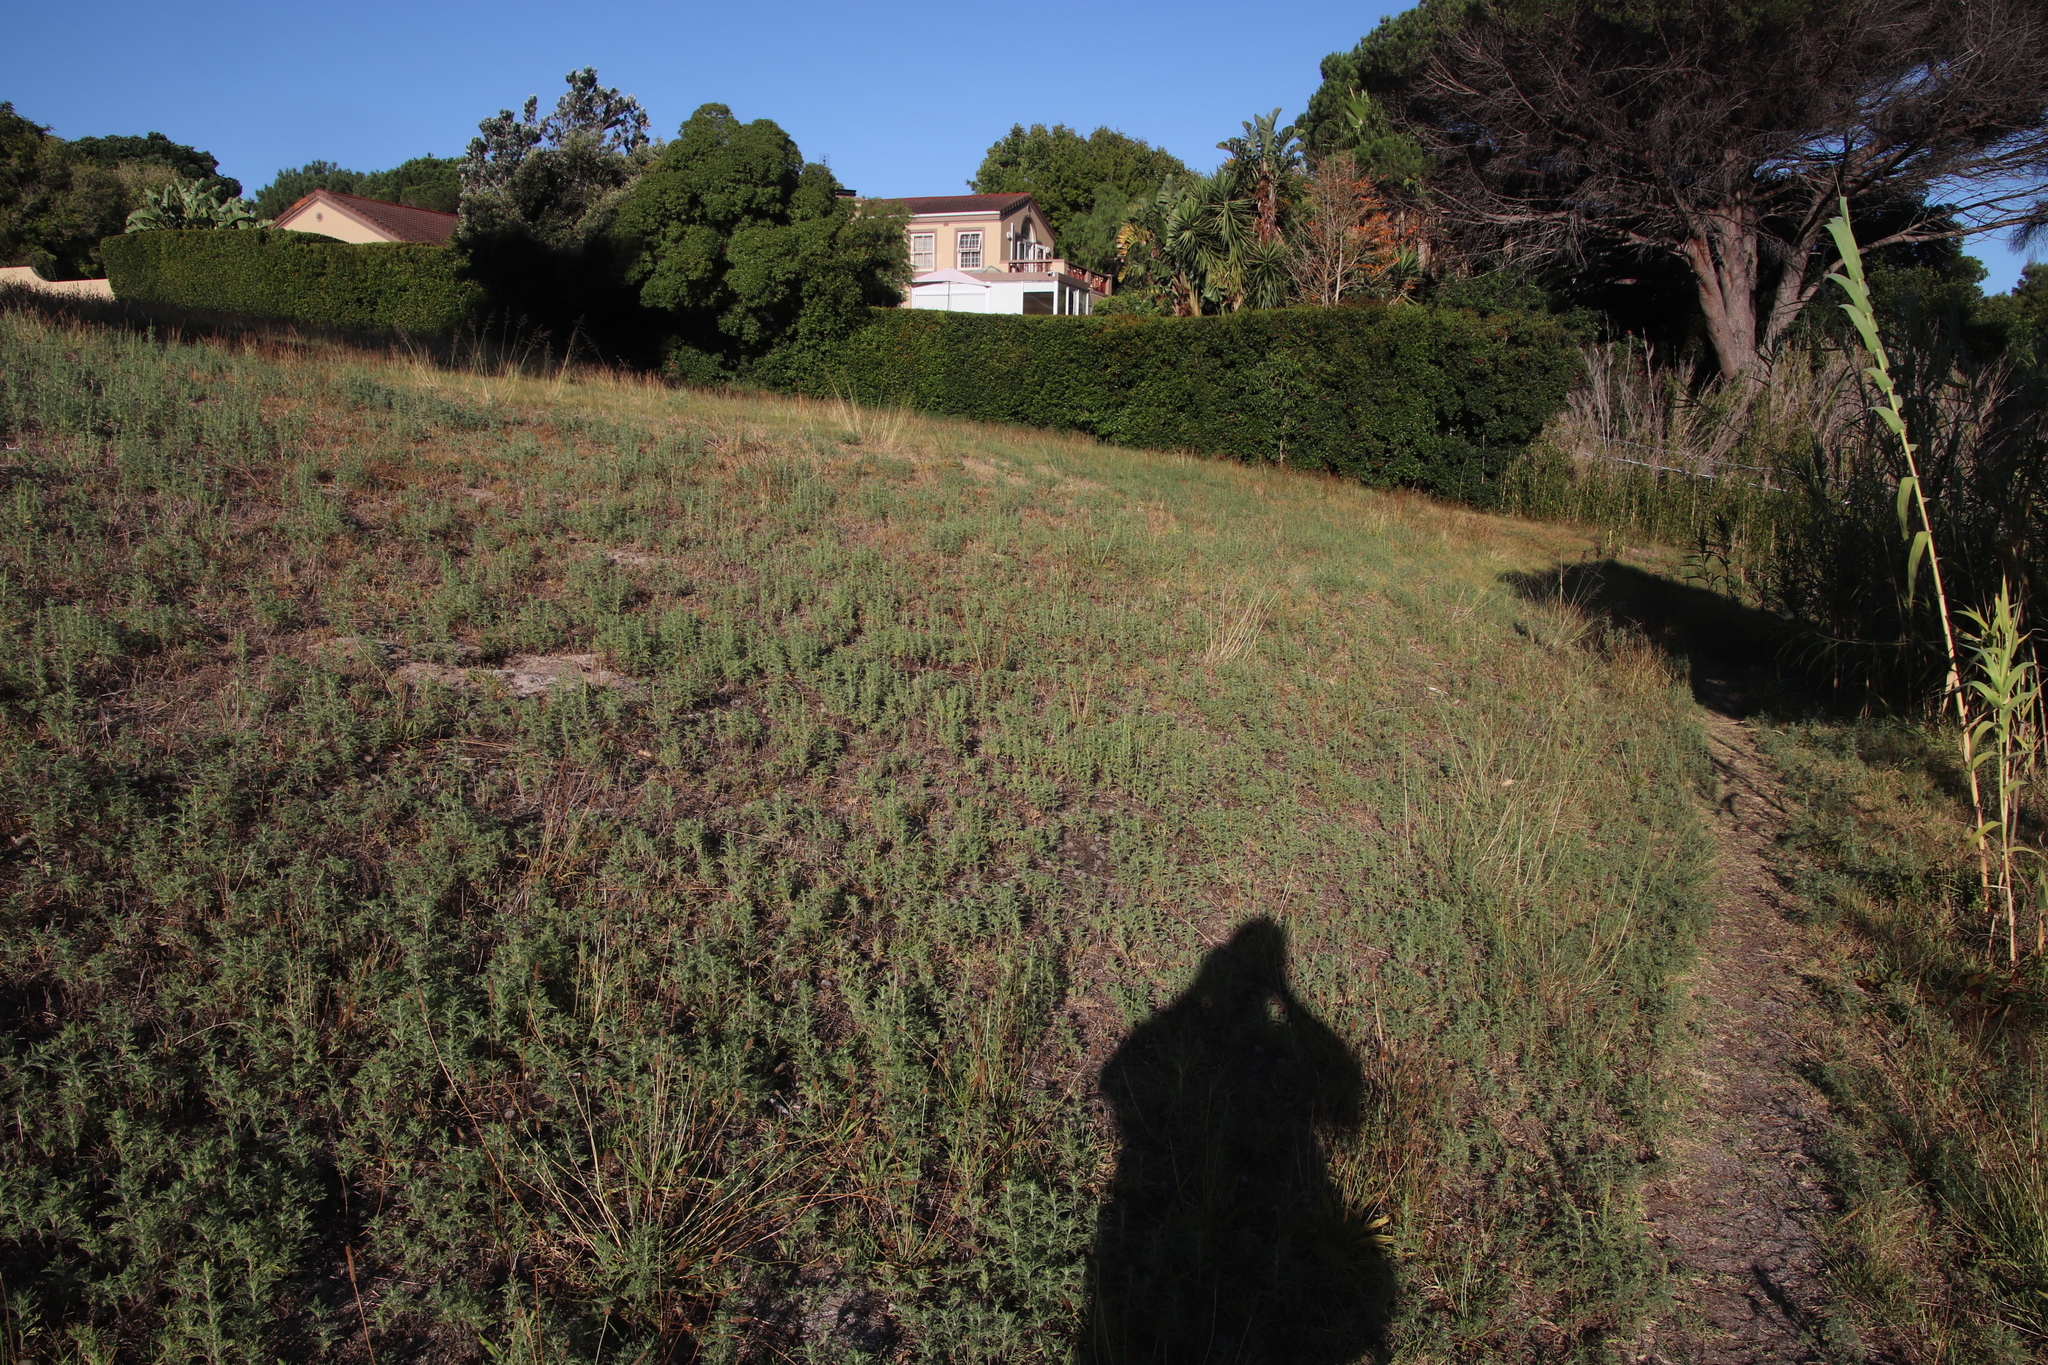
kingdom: Plantae
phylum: Tracheophyta
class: Magnoliopsida
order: Asterales
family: Asteraceae
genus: Ambrosia
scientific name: Ambrosia tenuifolia
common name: Lacy ambrosia
